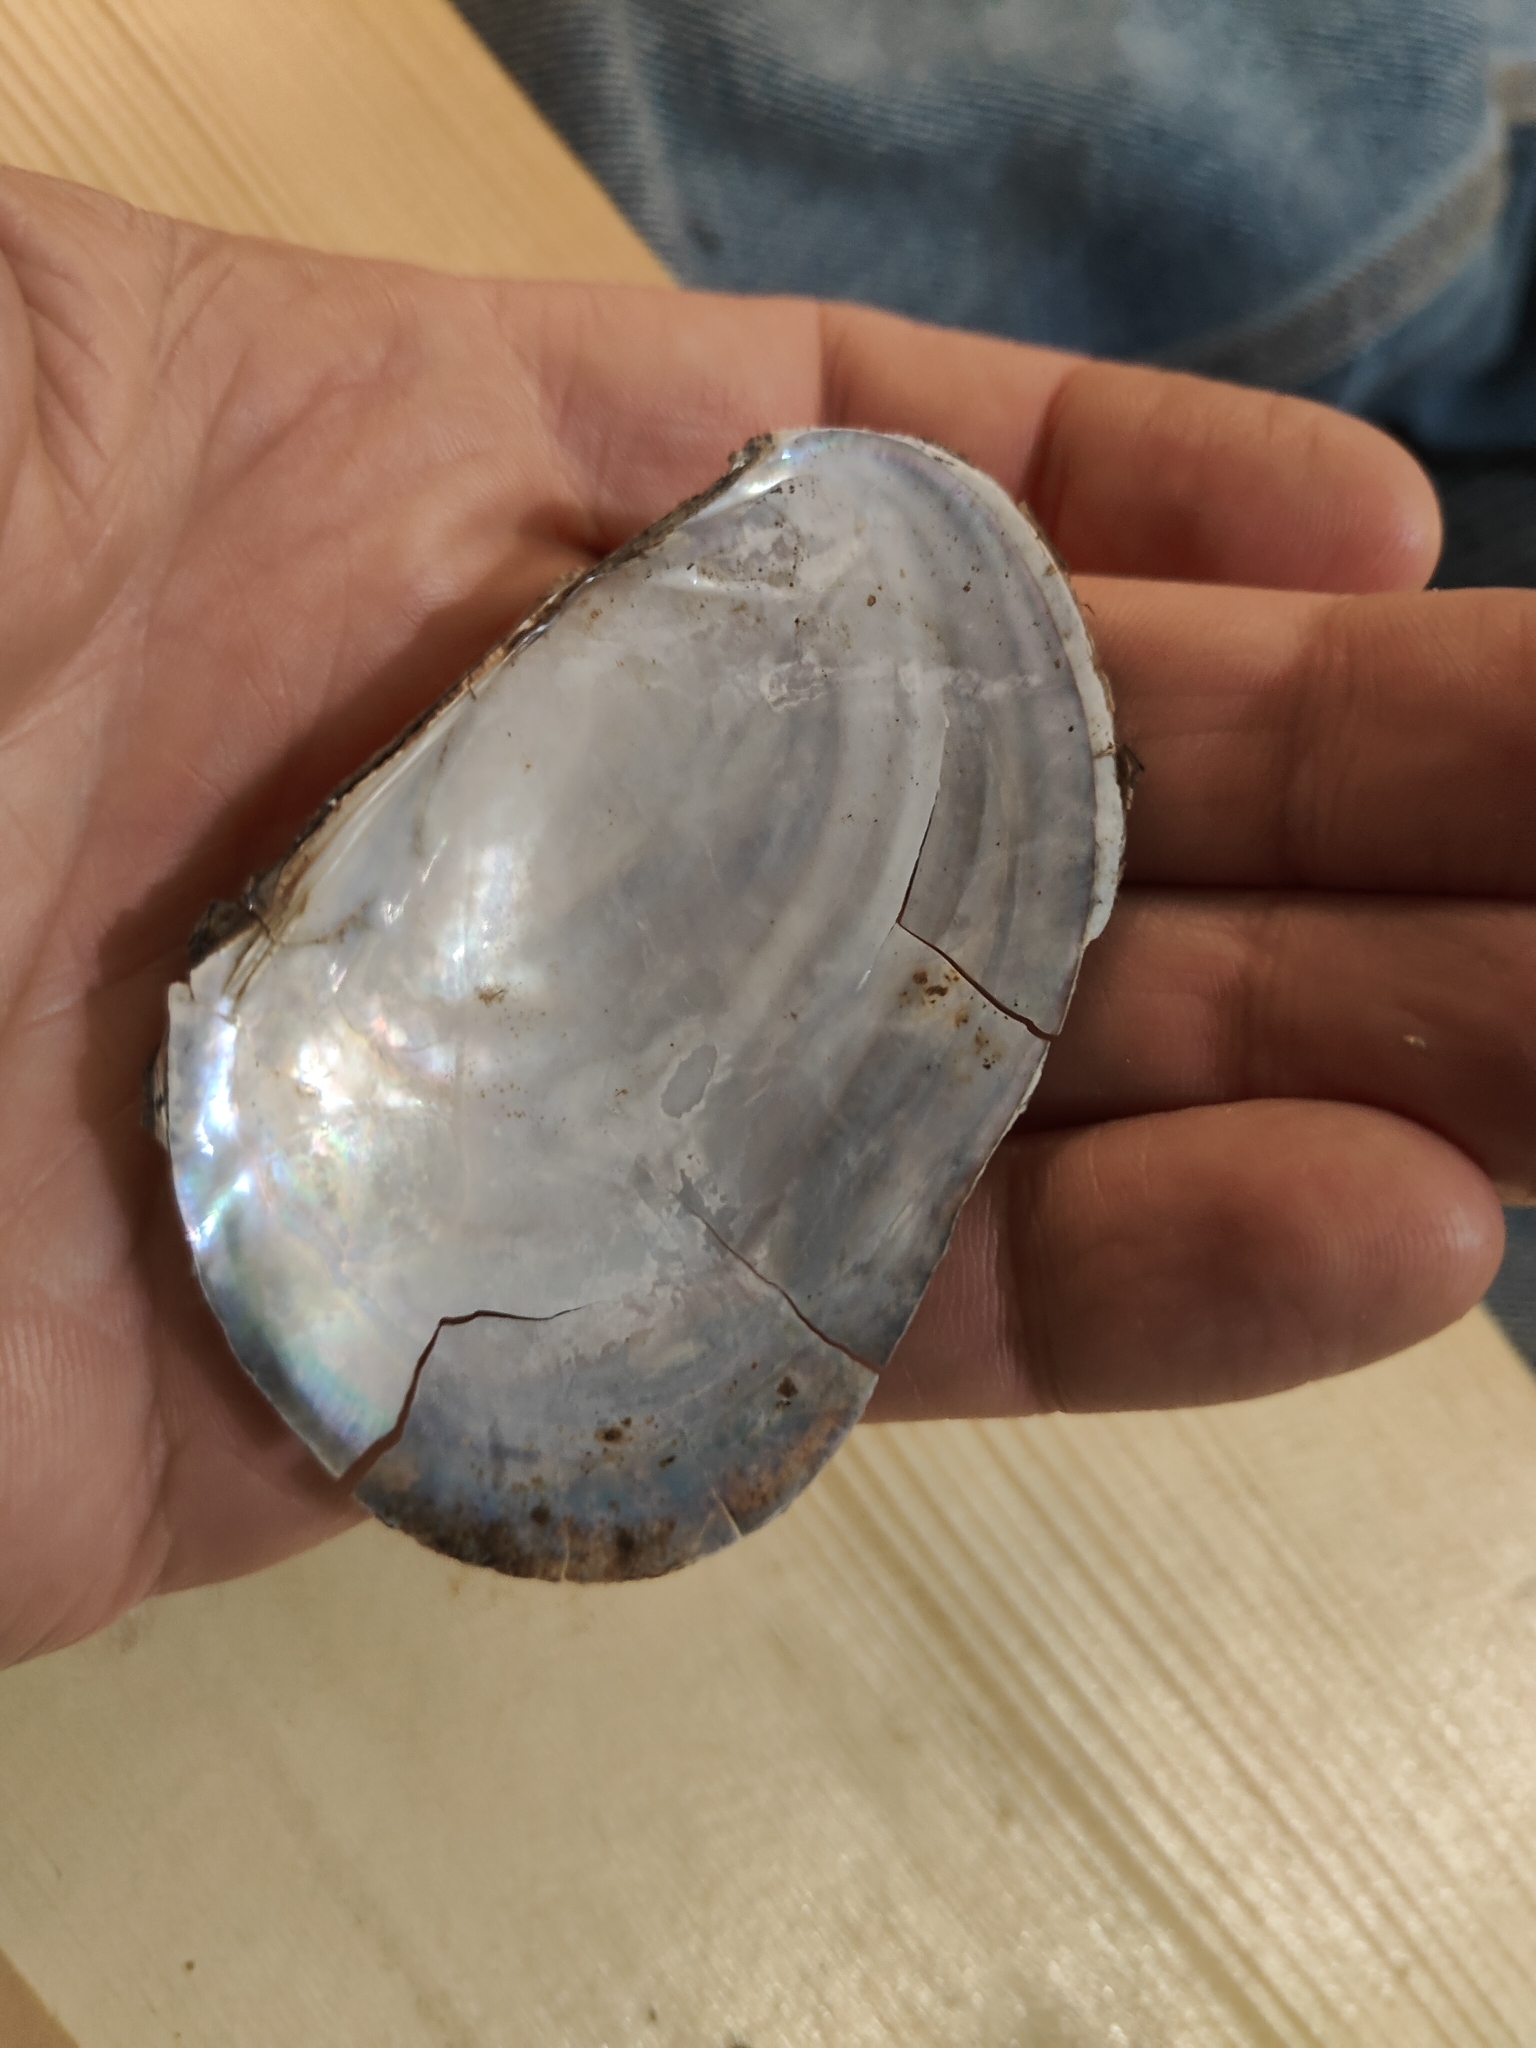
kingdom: Animalia
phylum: Mollusca
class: Bivalvia
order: Unionida
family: Unionidae
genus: Potamilus
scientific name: Potamilus fragilis
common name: Fragile papershell
